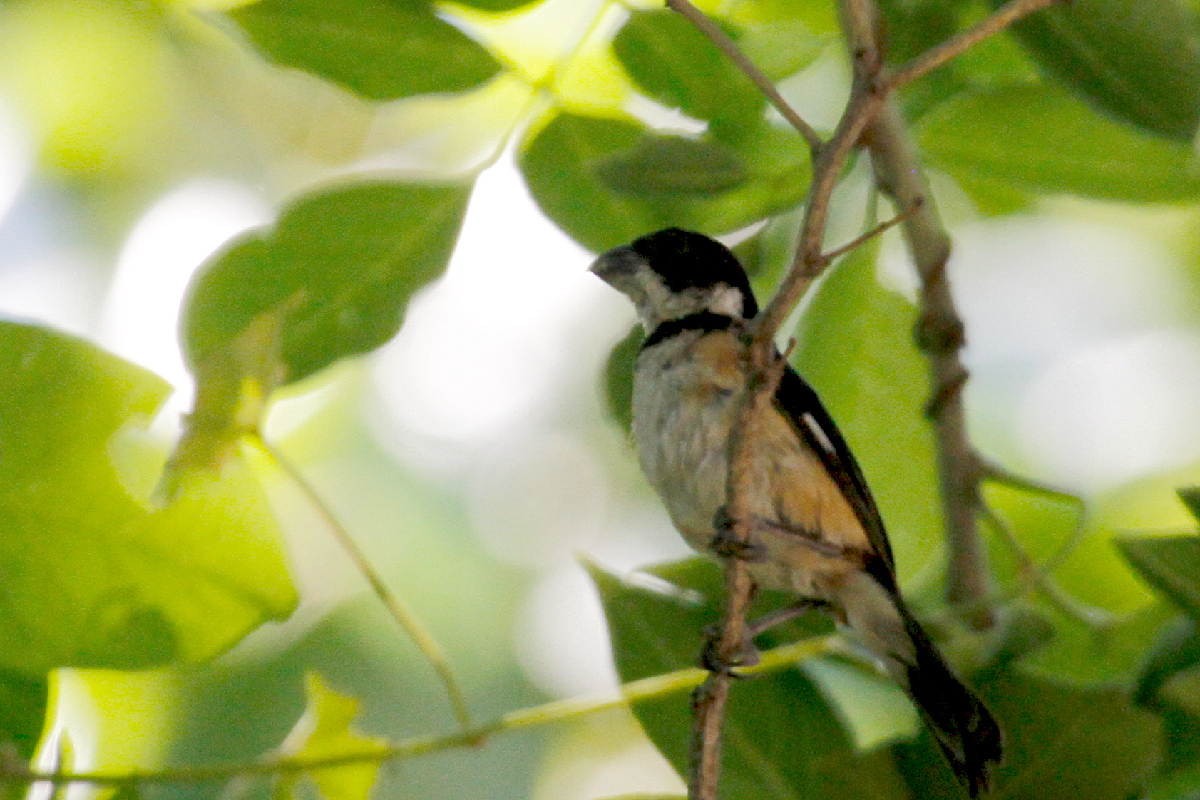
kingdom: Animalia
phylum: Chordata
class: Aves
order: Passeriformes
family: Thraupidae
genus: Sporophila
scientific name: Sporophila torqueola
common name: White-collared seedeater
